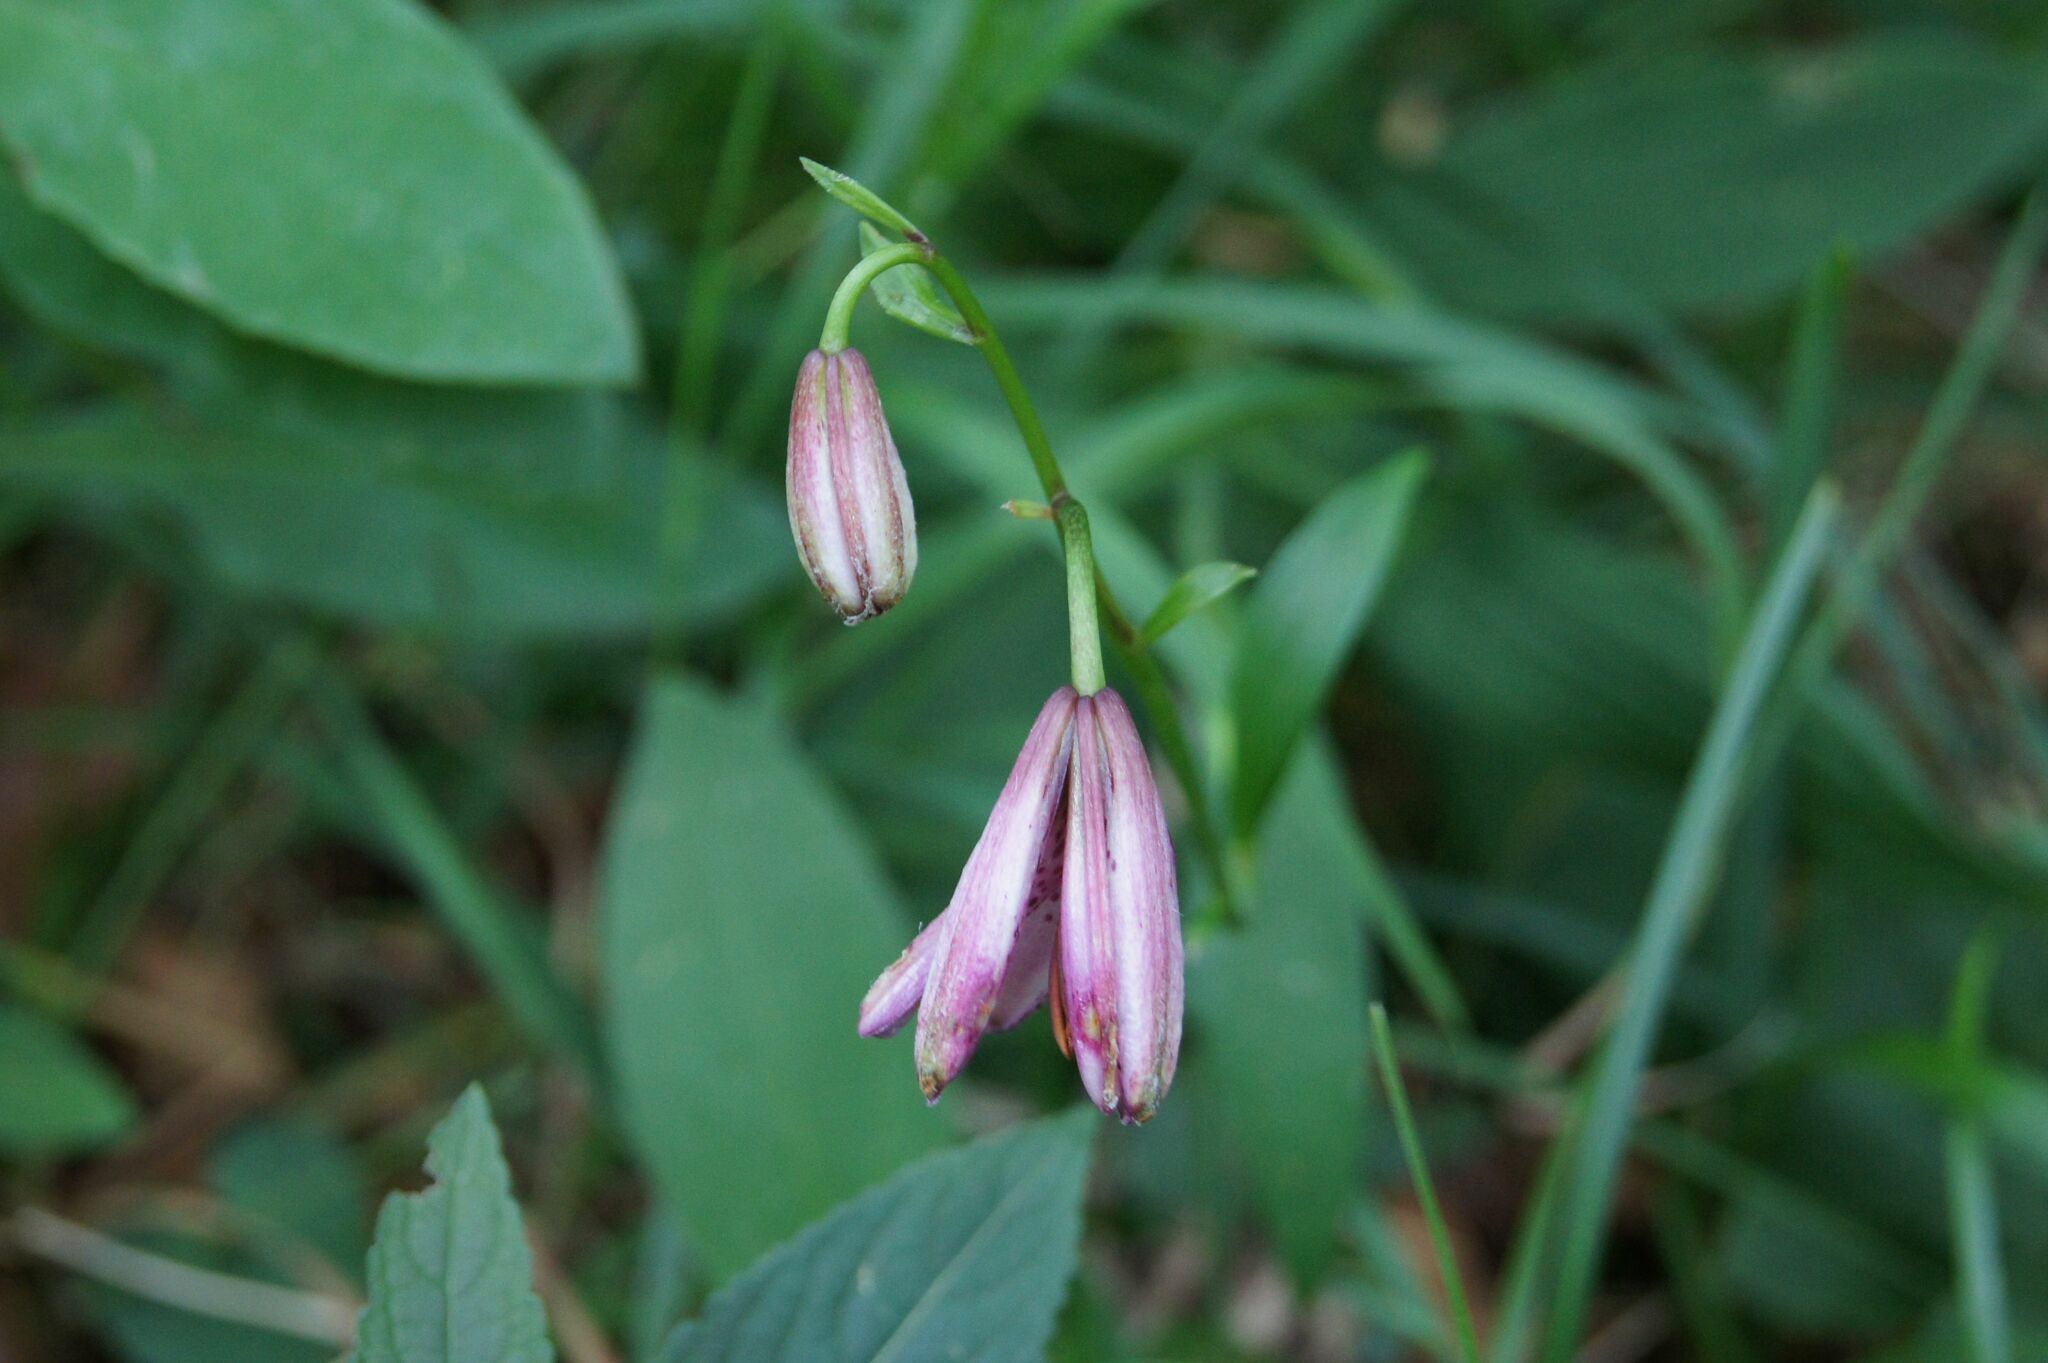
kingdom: Plantae
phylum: Tracheophyta
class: Liliopsida
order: Liliales
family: Liliaceae
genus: Lilium
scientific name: Lilium martagon
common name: Martagon lily
